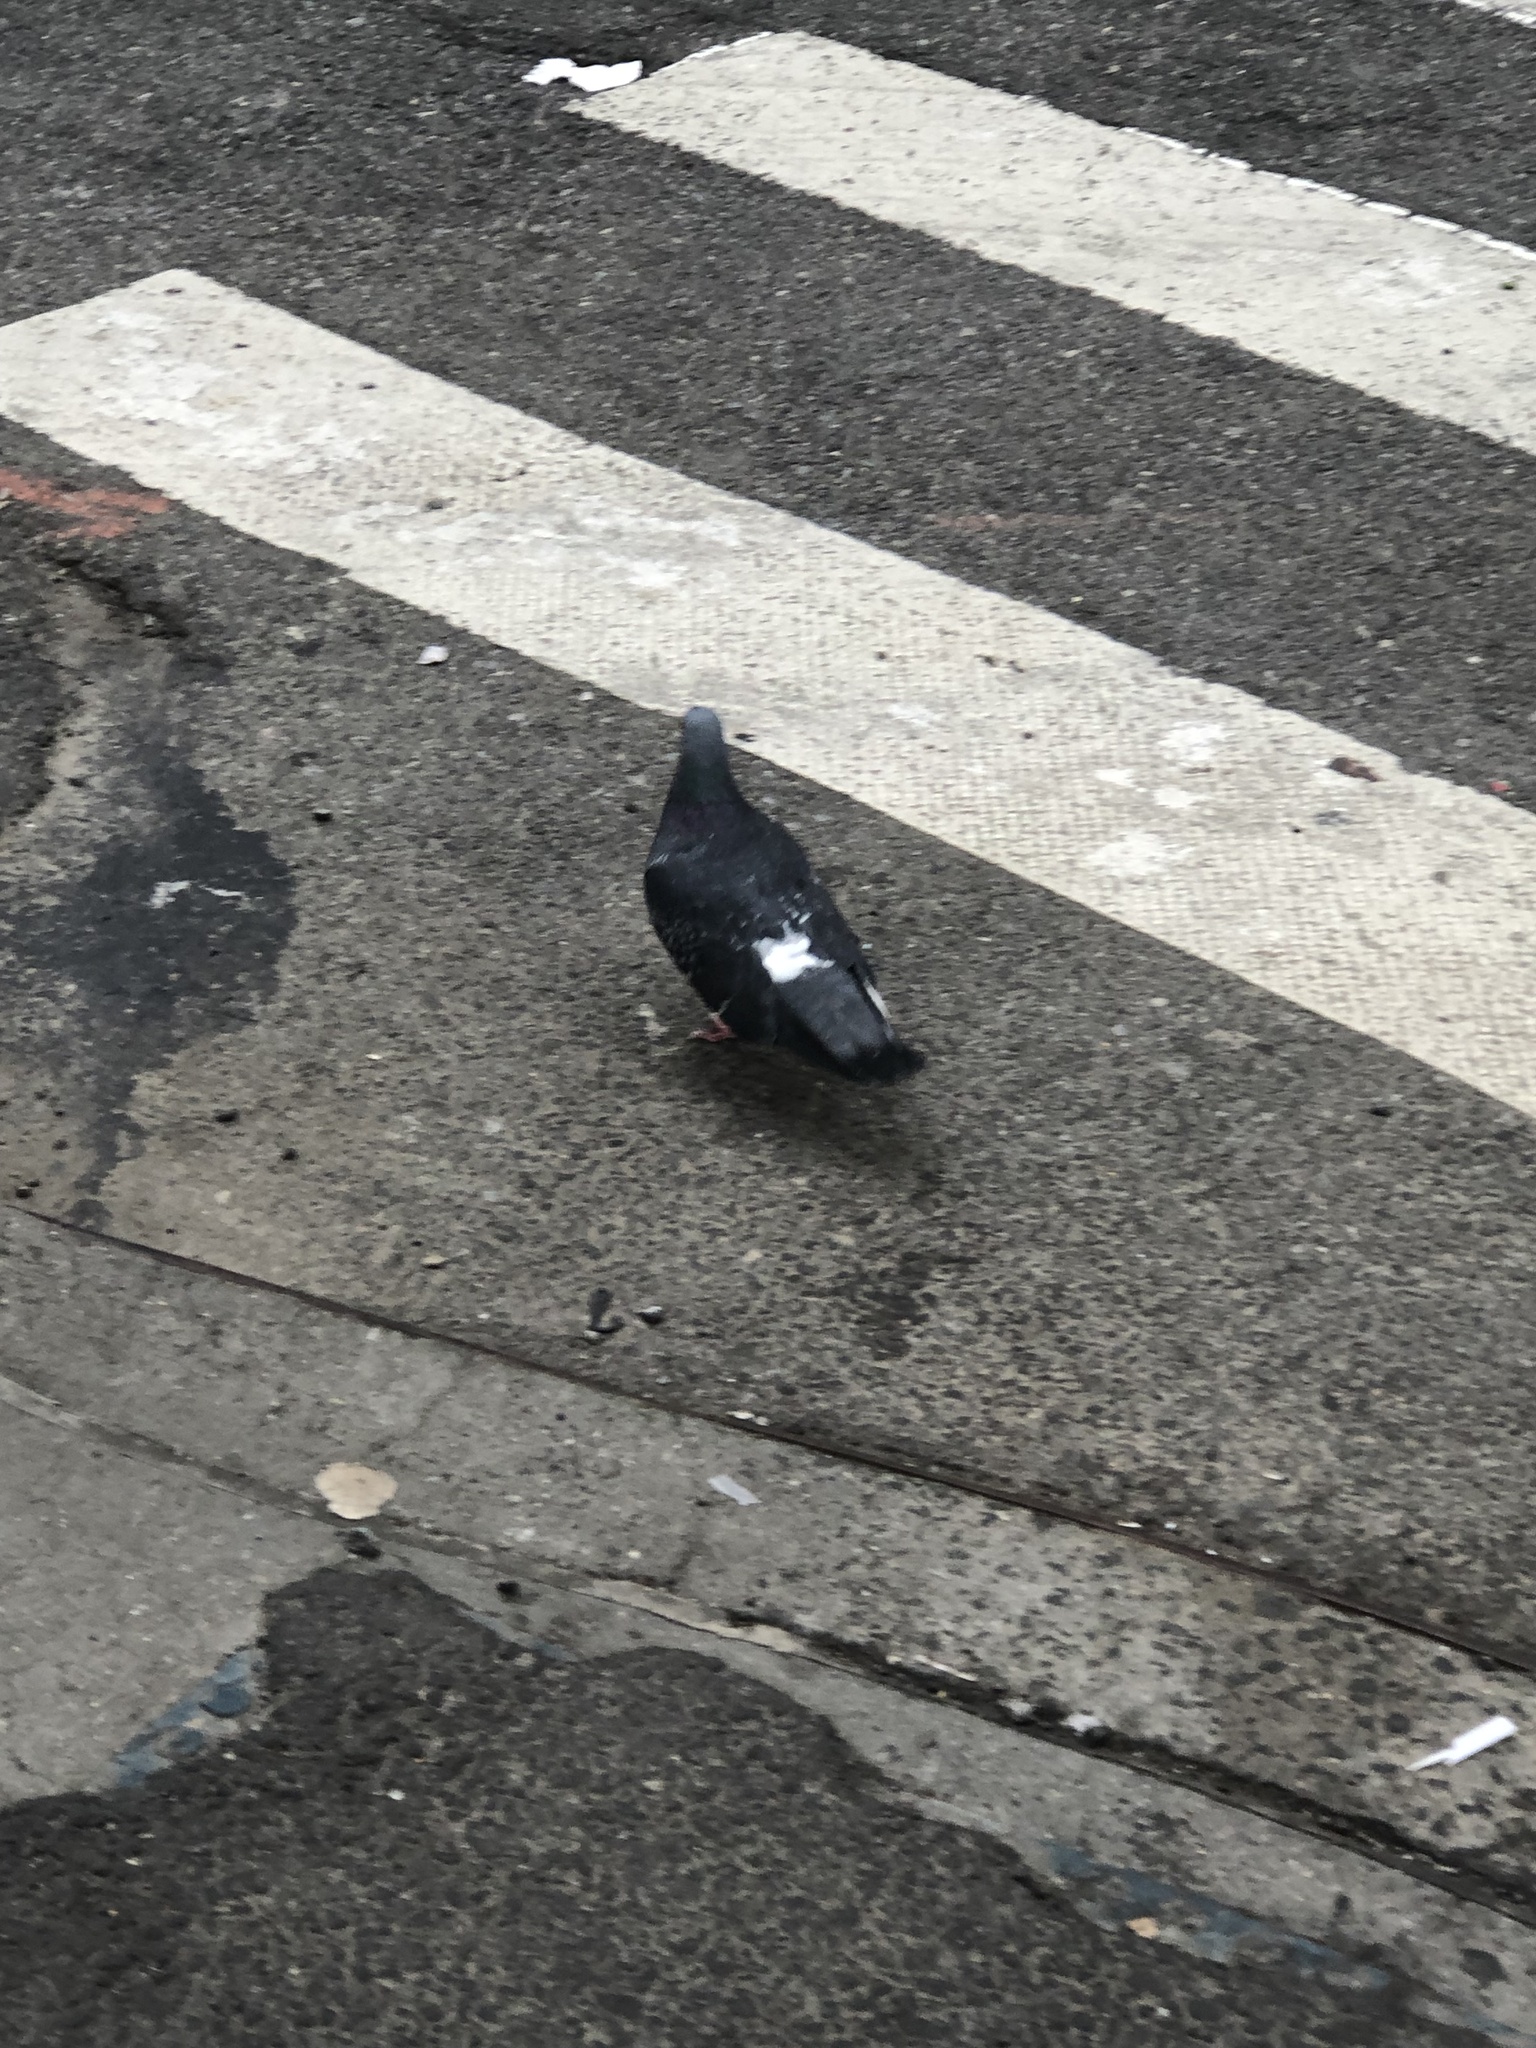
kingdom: Animalia
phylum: Chordata
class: Aves
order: Columbiformes
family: Columbidae
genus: Columba
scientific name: Columba livia
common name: Rock pigeon
